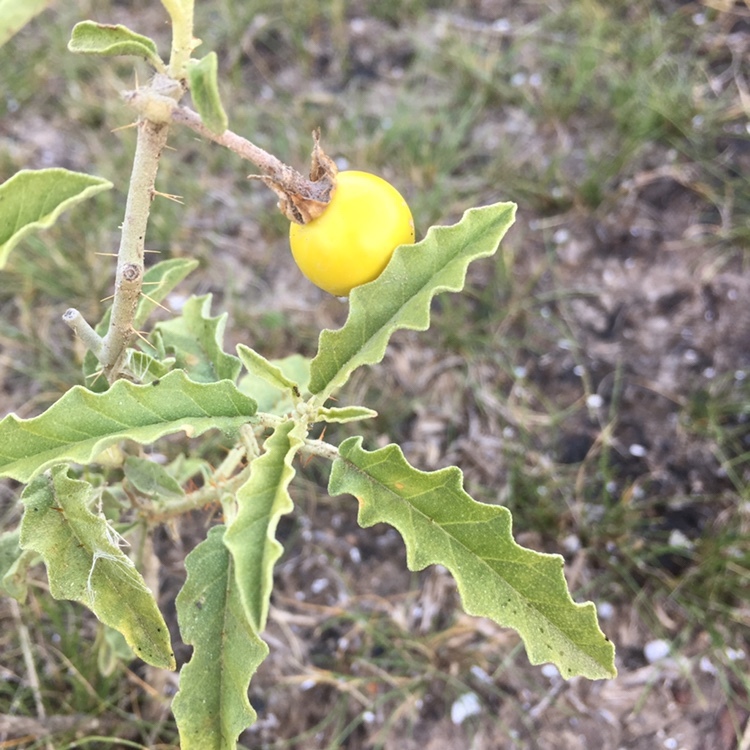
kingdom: Plantae
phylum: Tracheophyta
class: Magnoliopsida
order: Solanales
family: Solanaceae
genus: Solanum
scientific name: Solanum elaeagnifolium
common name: Silverleaf nightshade
